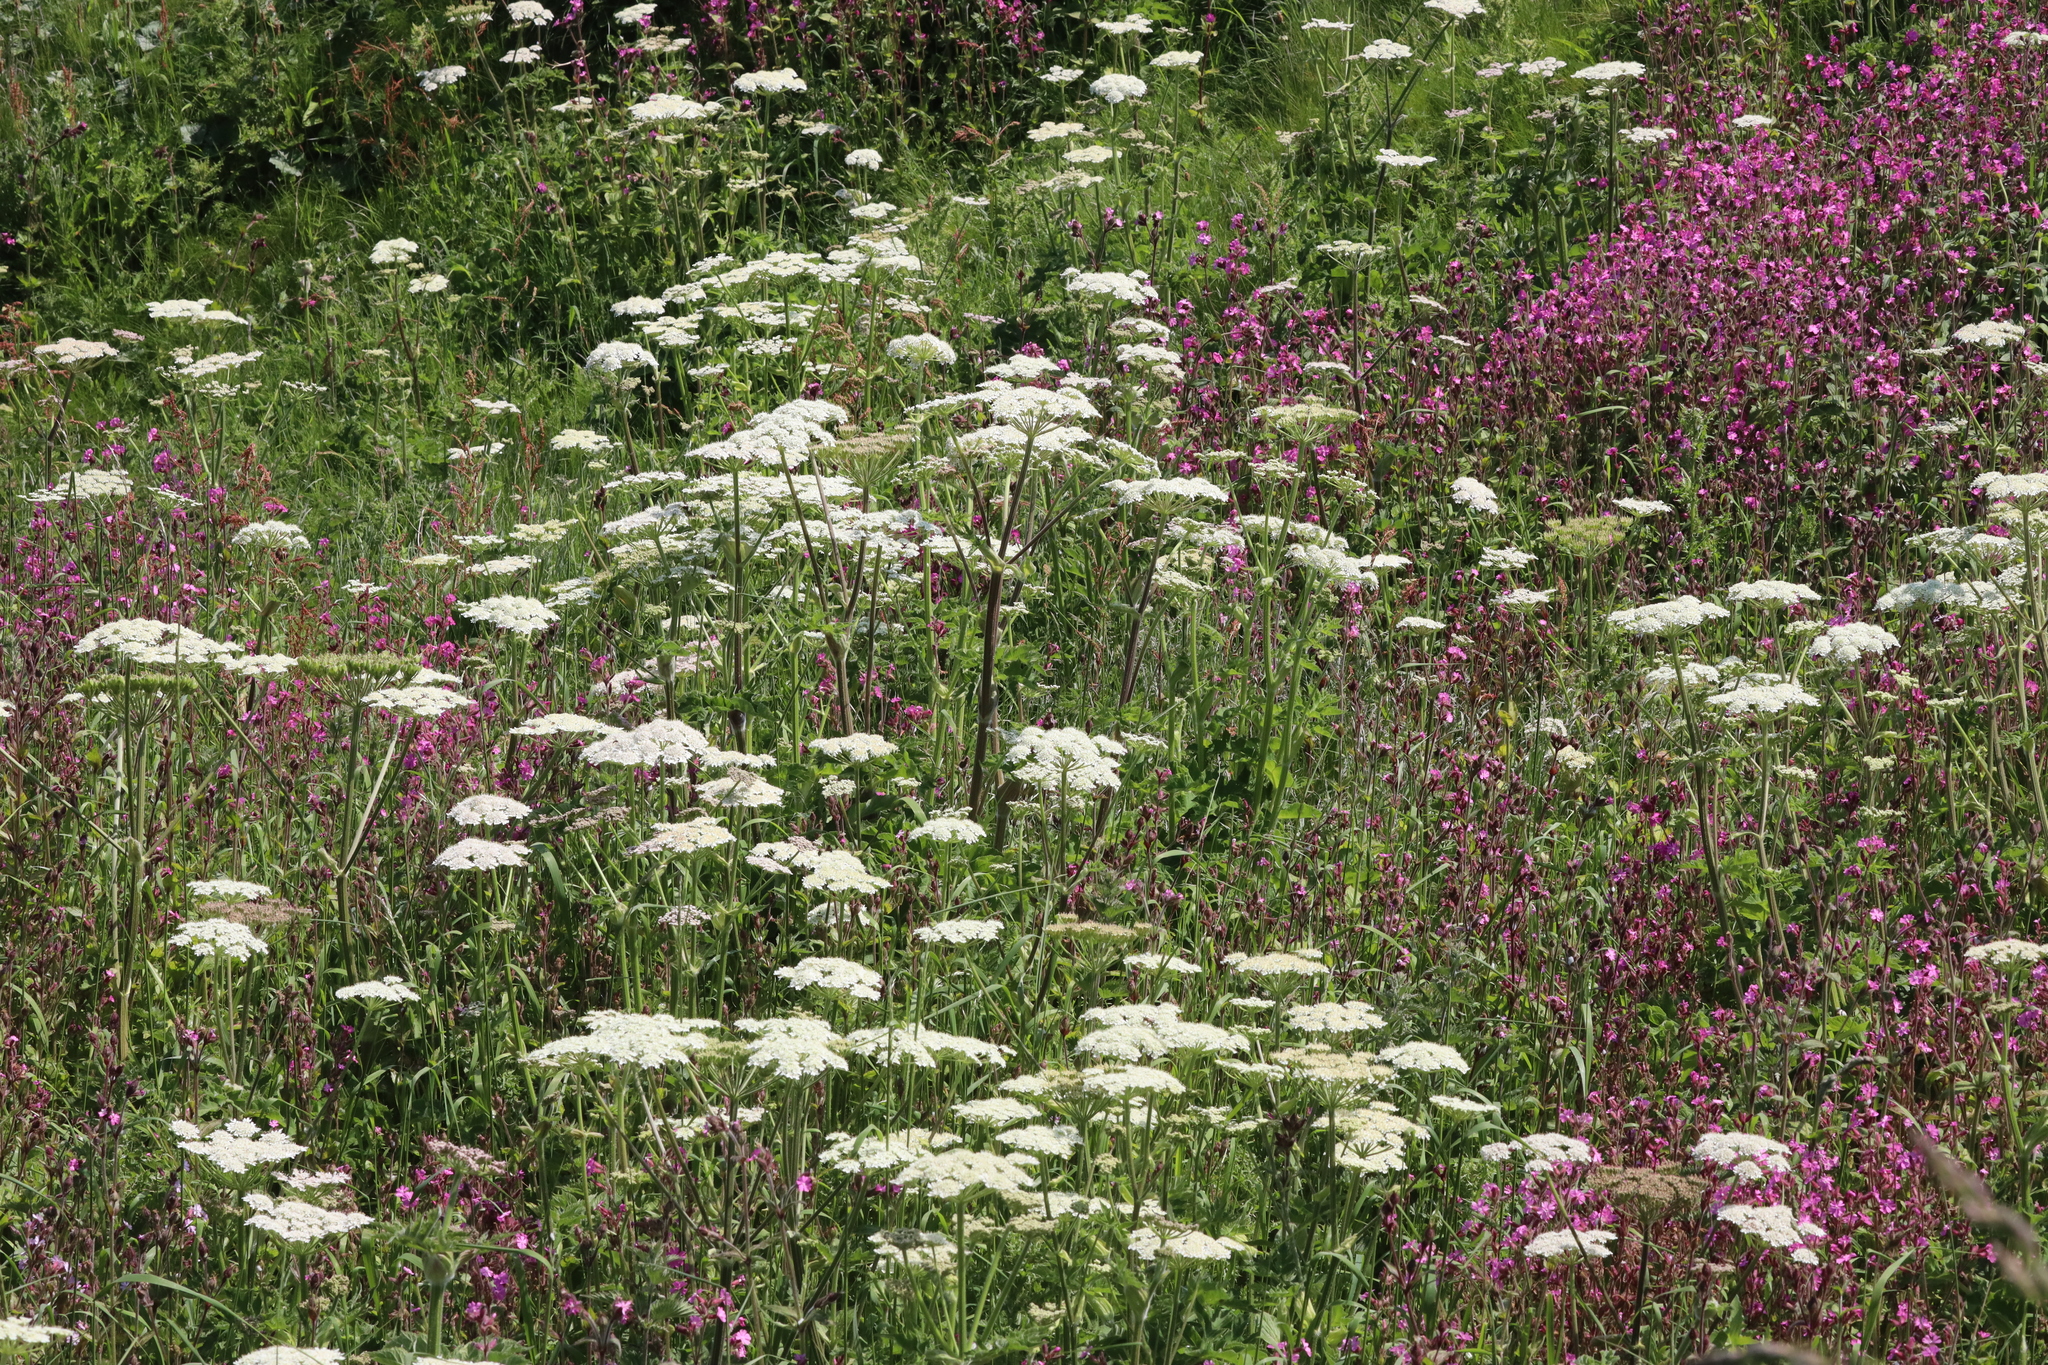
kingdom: Plantae
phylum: Tracheophyta
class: Magnoliopsida
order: Apiales
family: Apiaceae
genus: Heracleum
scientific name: Heracleum sphondylium
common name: Hogweed
